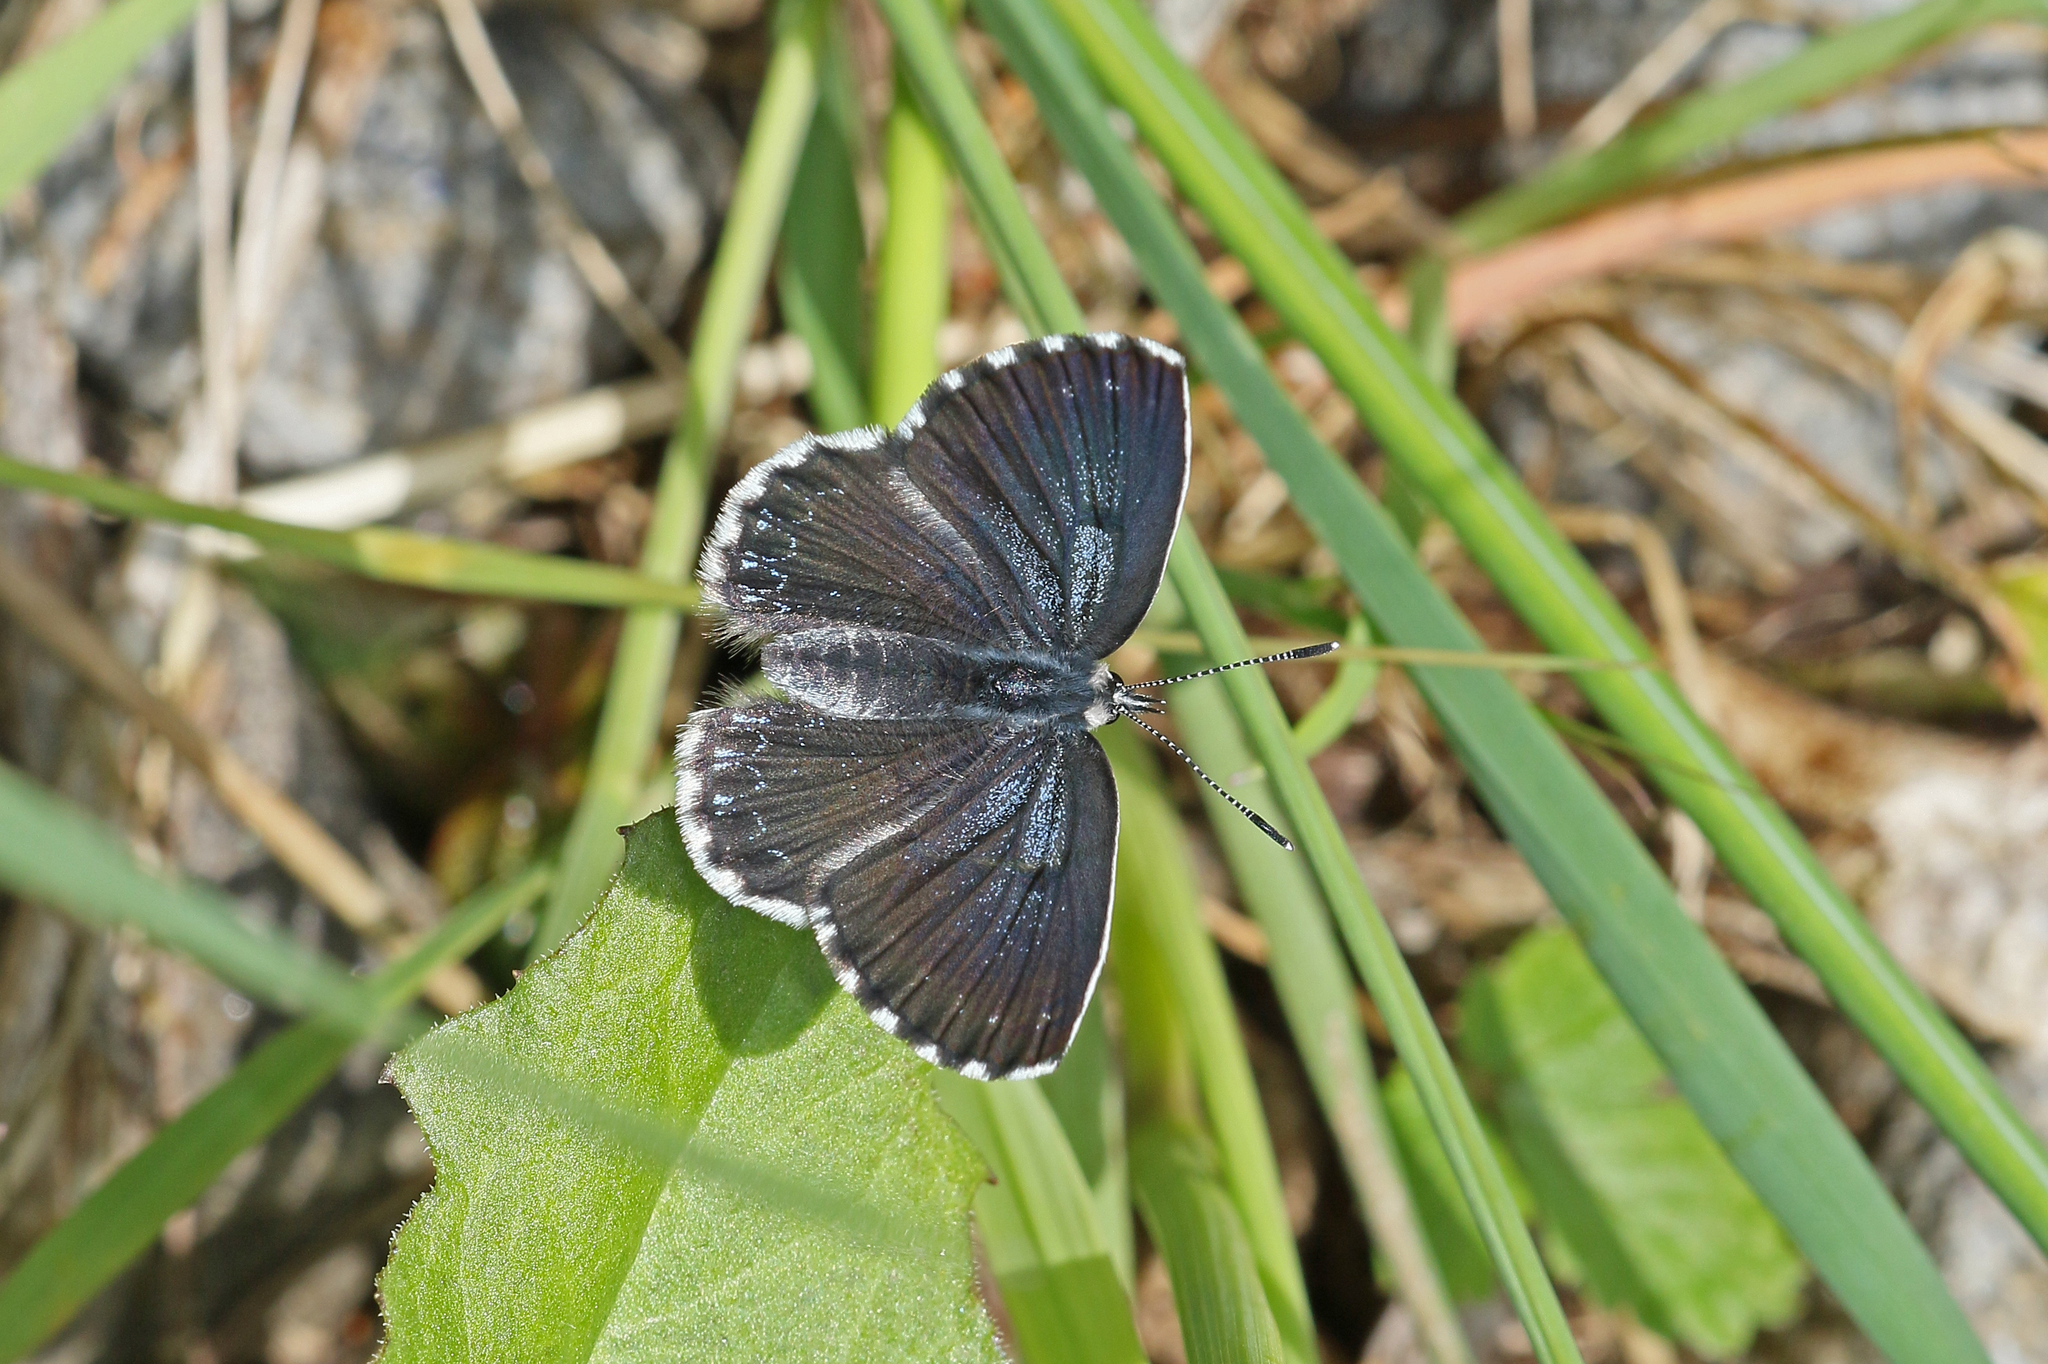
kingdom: Animalia
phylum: Arthropoda
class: Insecta
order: Lepidoptera
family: Lycaenidae
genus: Scolitantides
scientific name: Scolitantides orion
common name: Chequered blue
